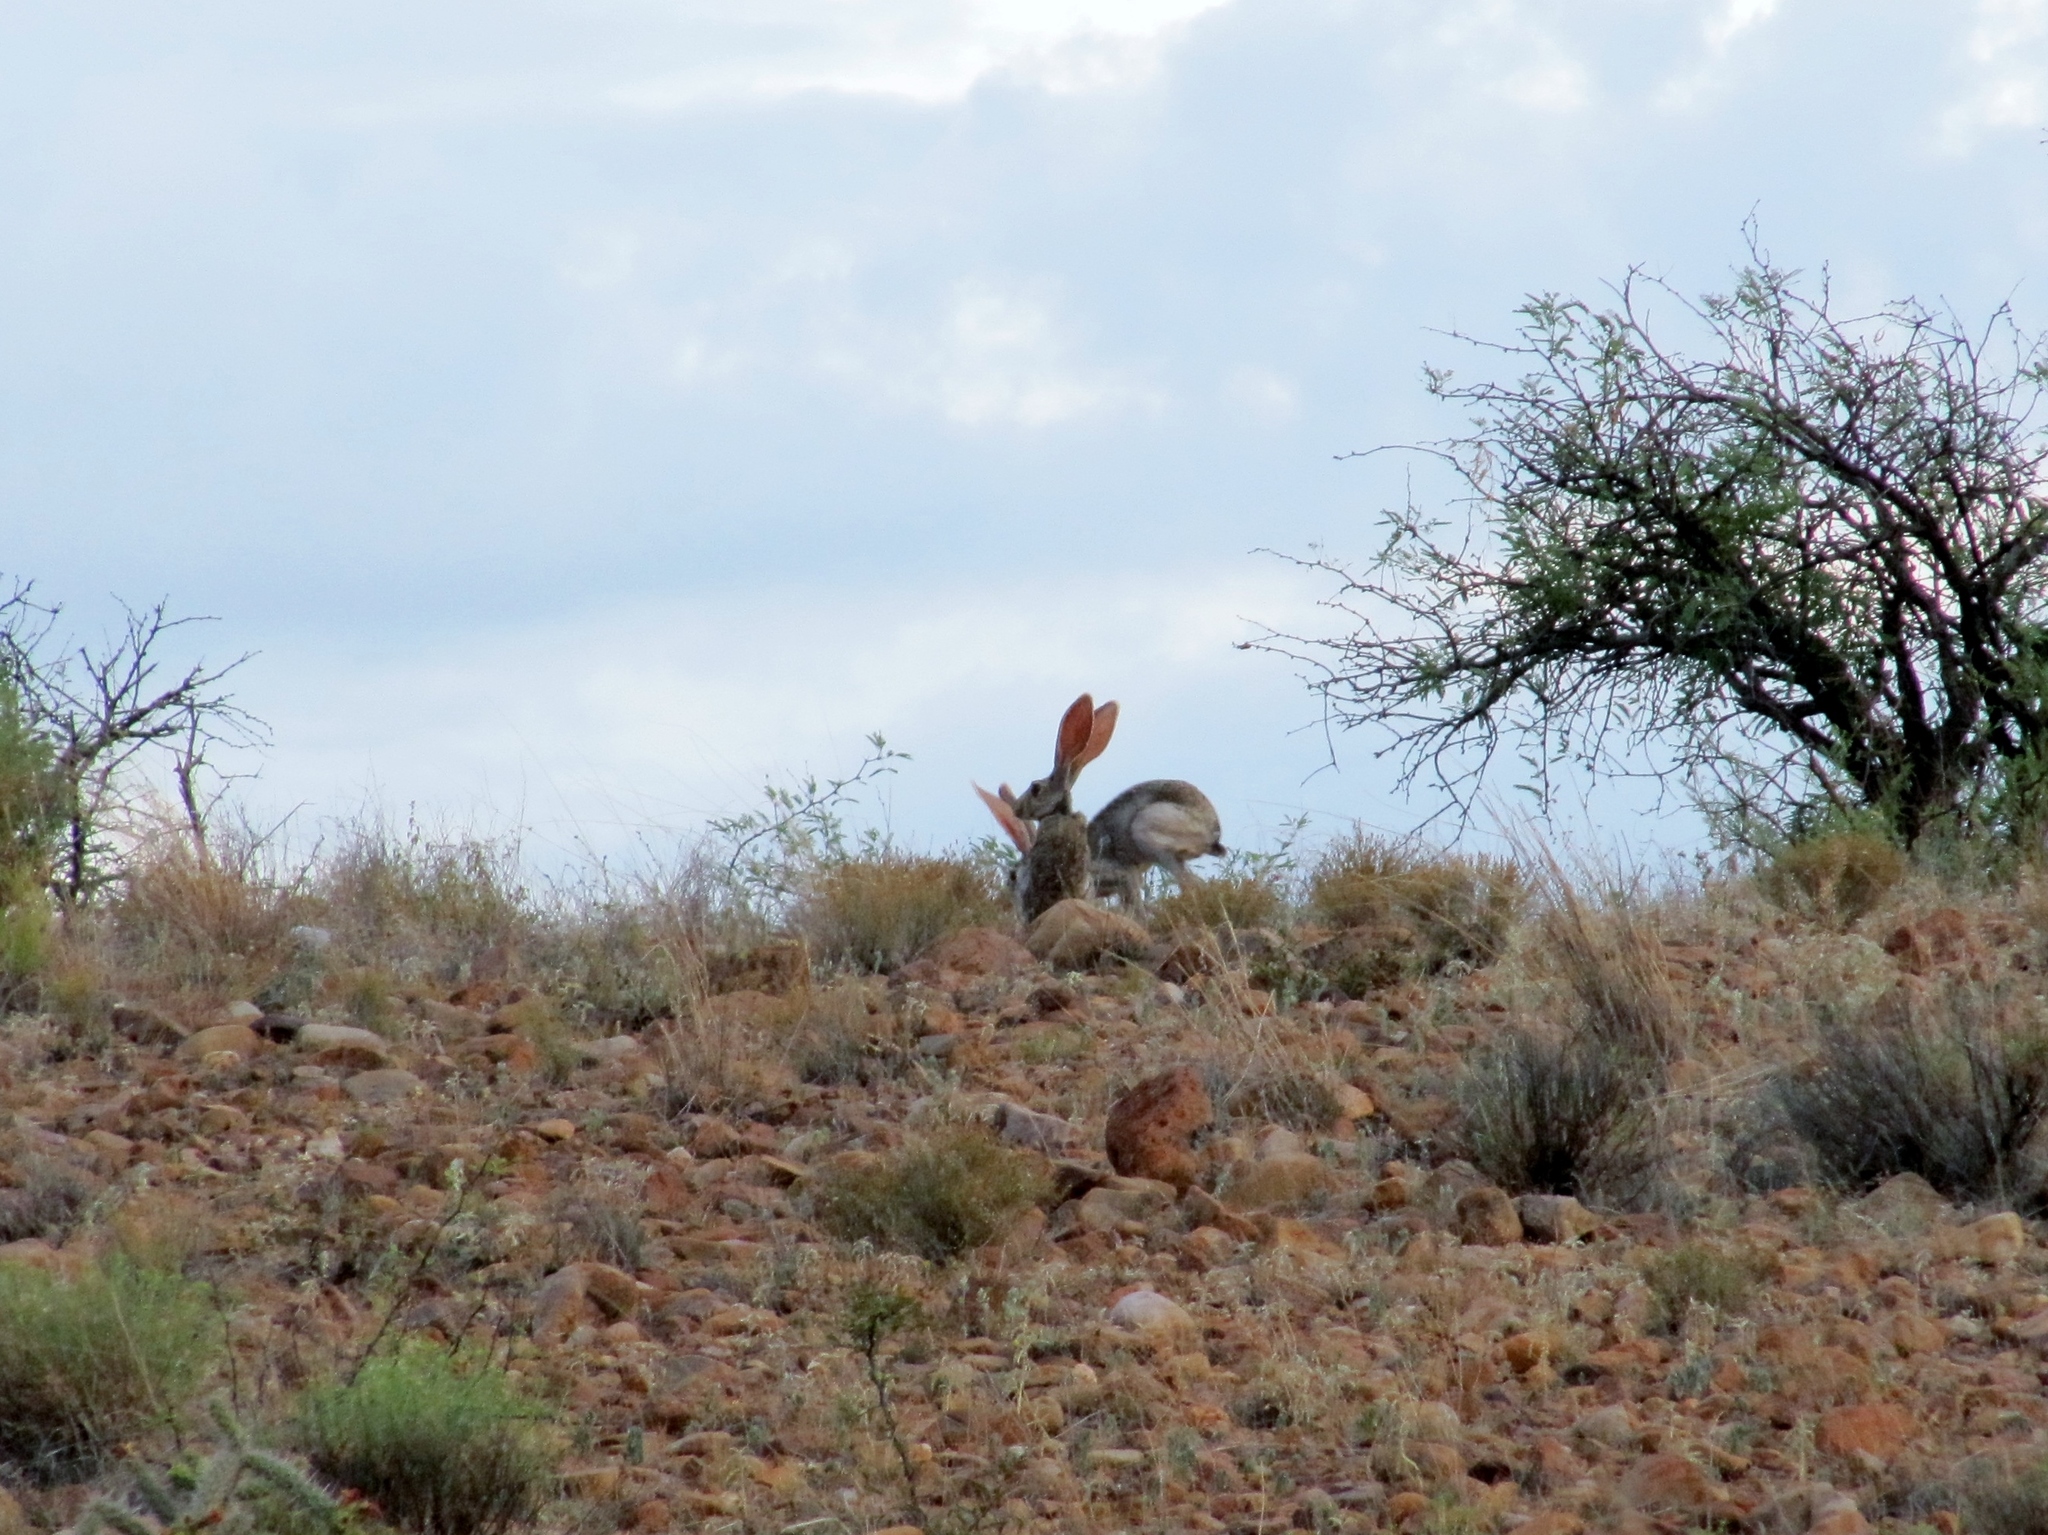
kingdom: Animalia
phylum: Chordata
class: Mammalia
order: Lagomorpha
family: Leporidae
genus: Lepus
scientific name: Lepus californicus
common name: Black-tailed jackrabbit
